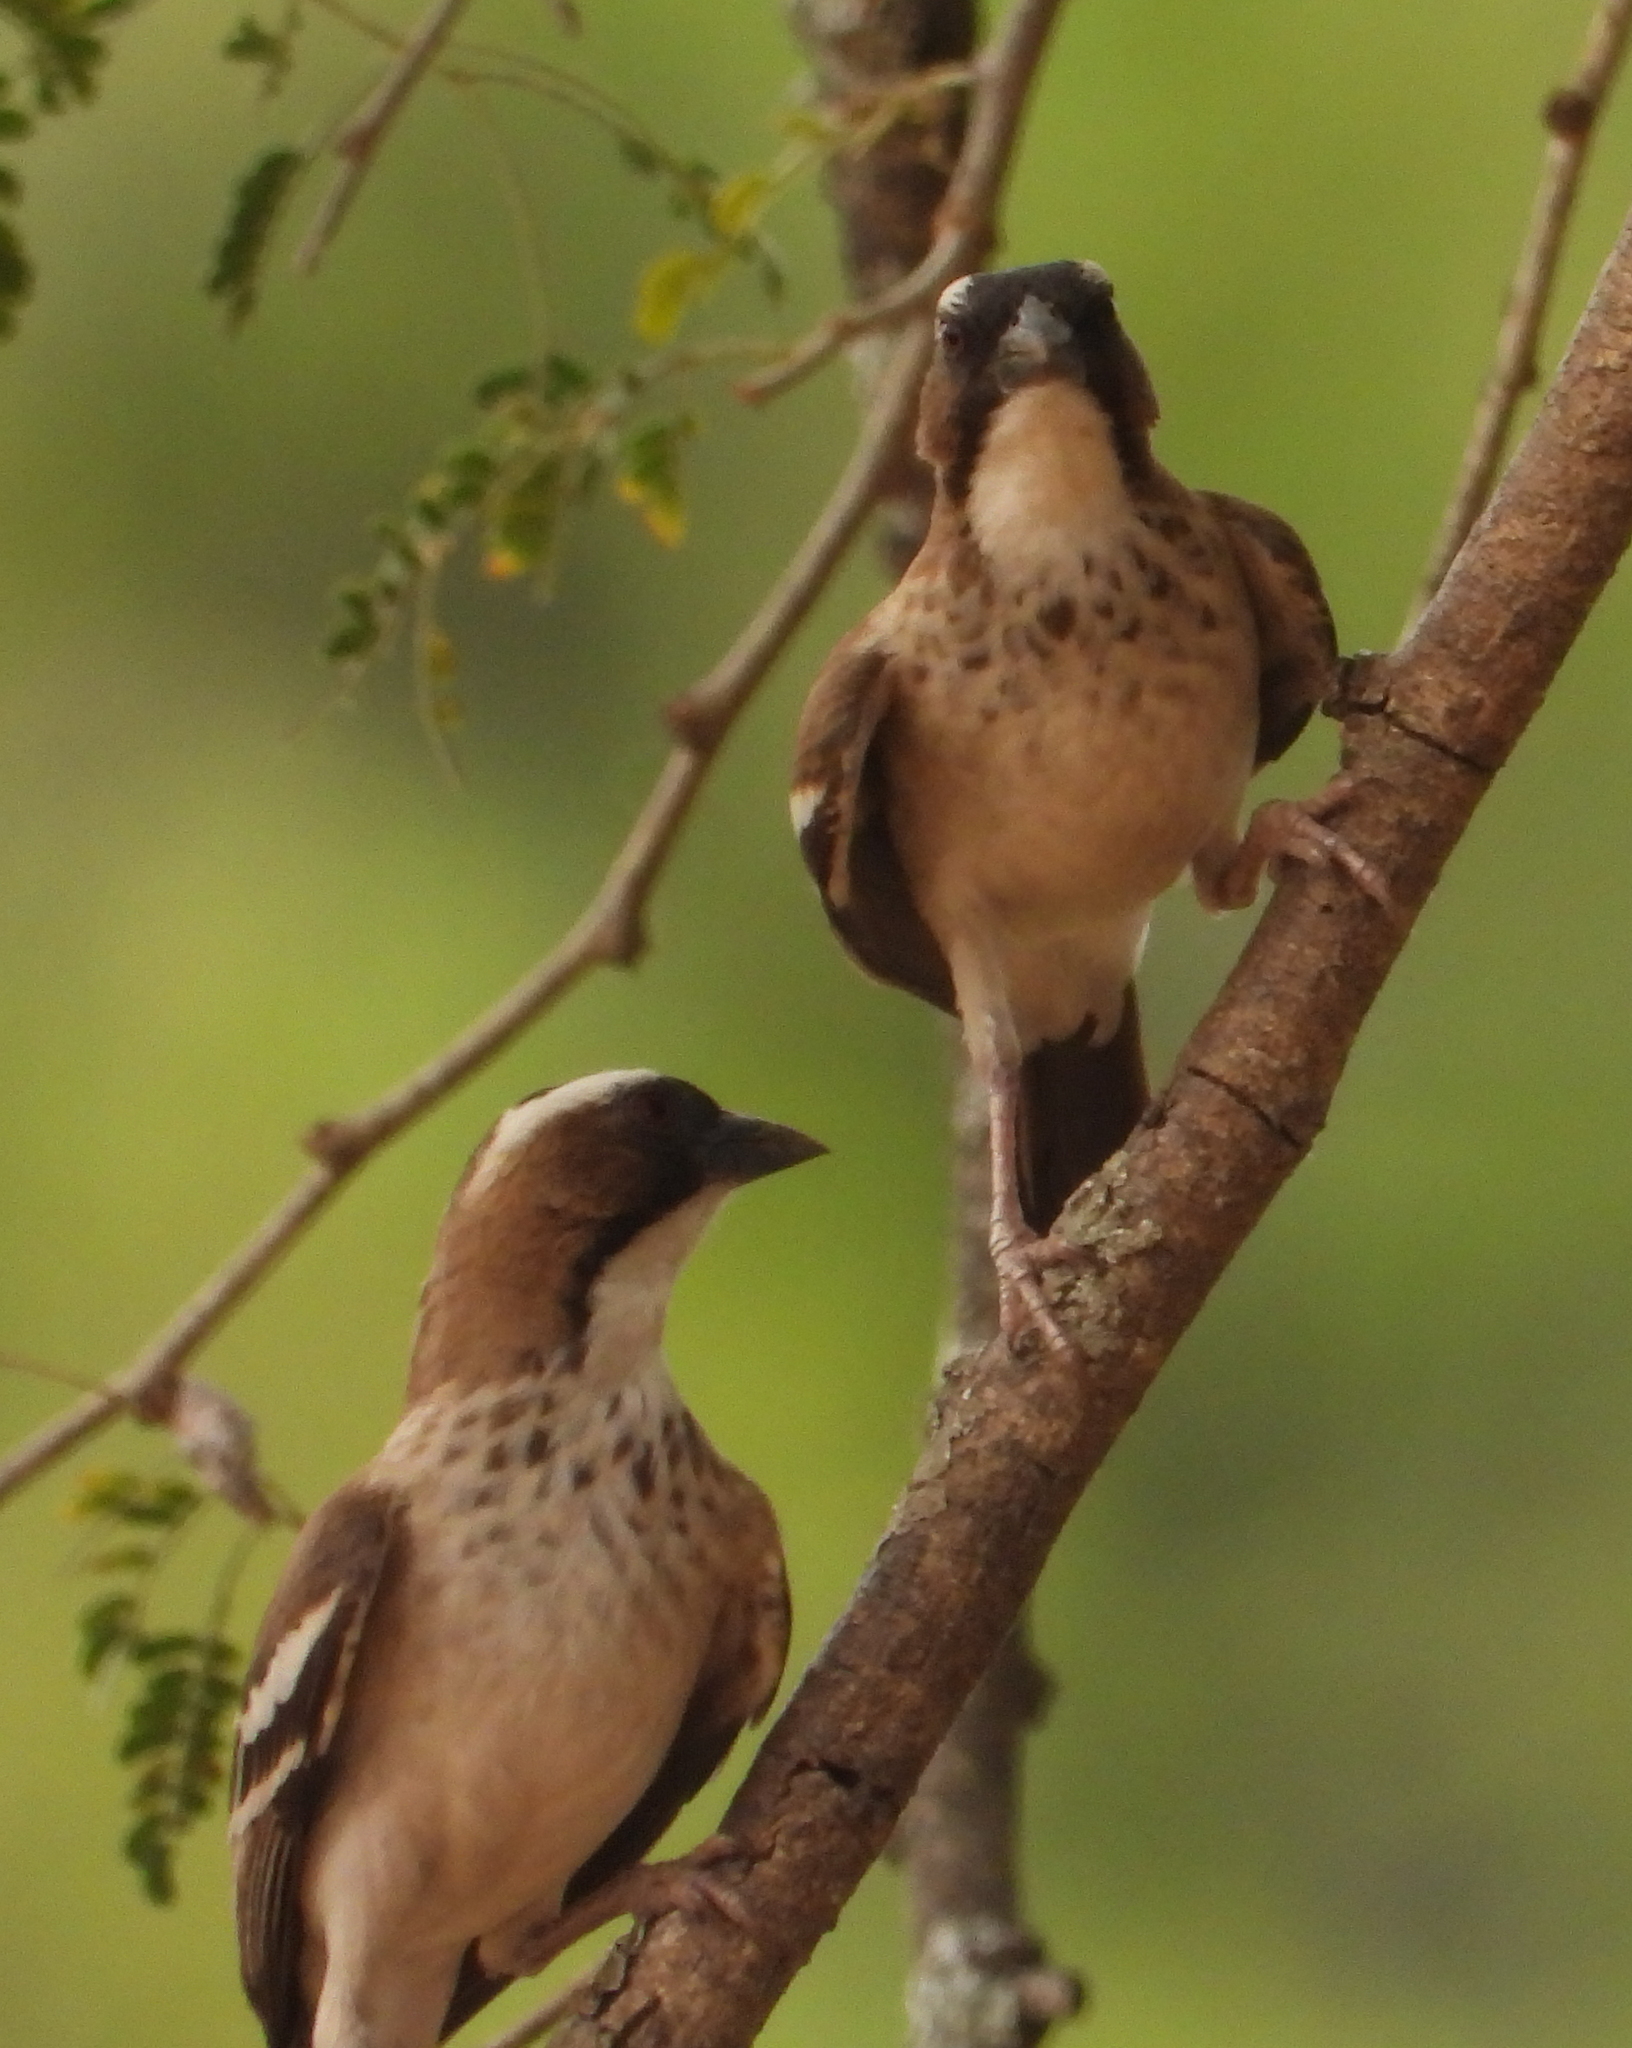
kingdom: Animalia
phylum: Chordata
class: Aves
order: Passeriformes
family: Passeridae
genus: Plocepasser
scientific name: Plocepasser mahali
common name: White-browed sparrow-weaver
